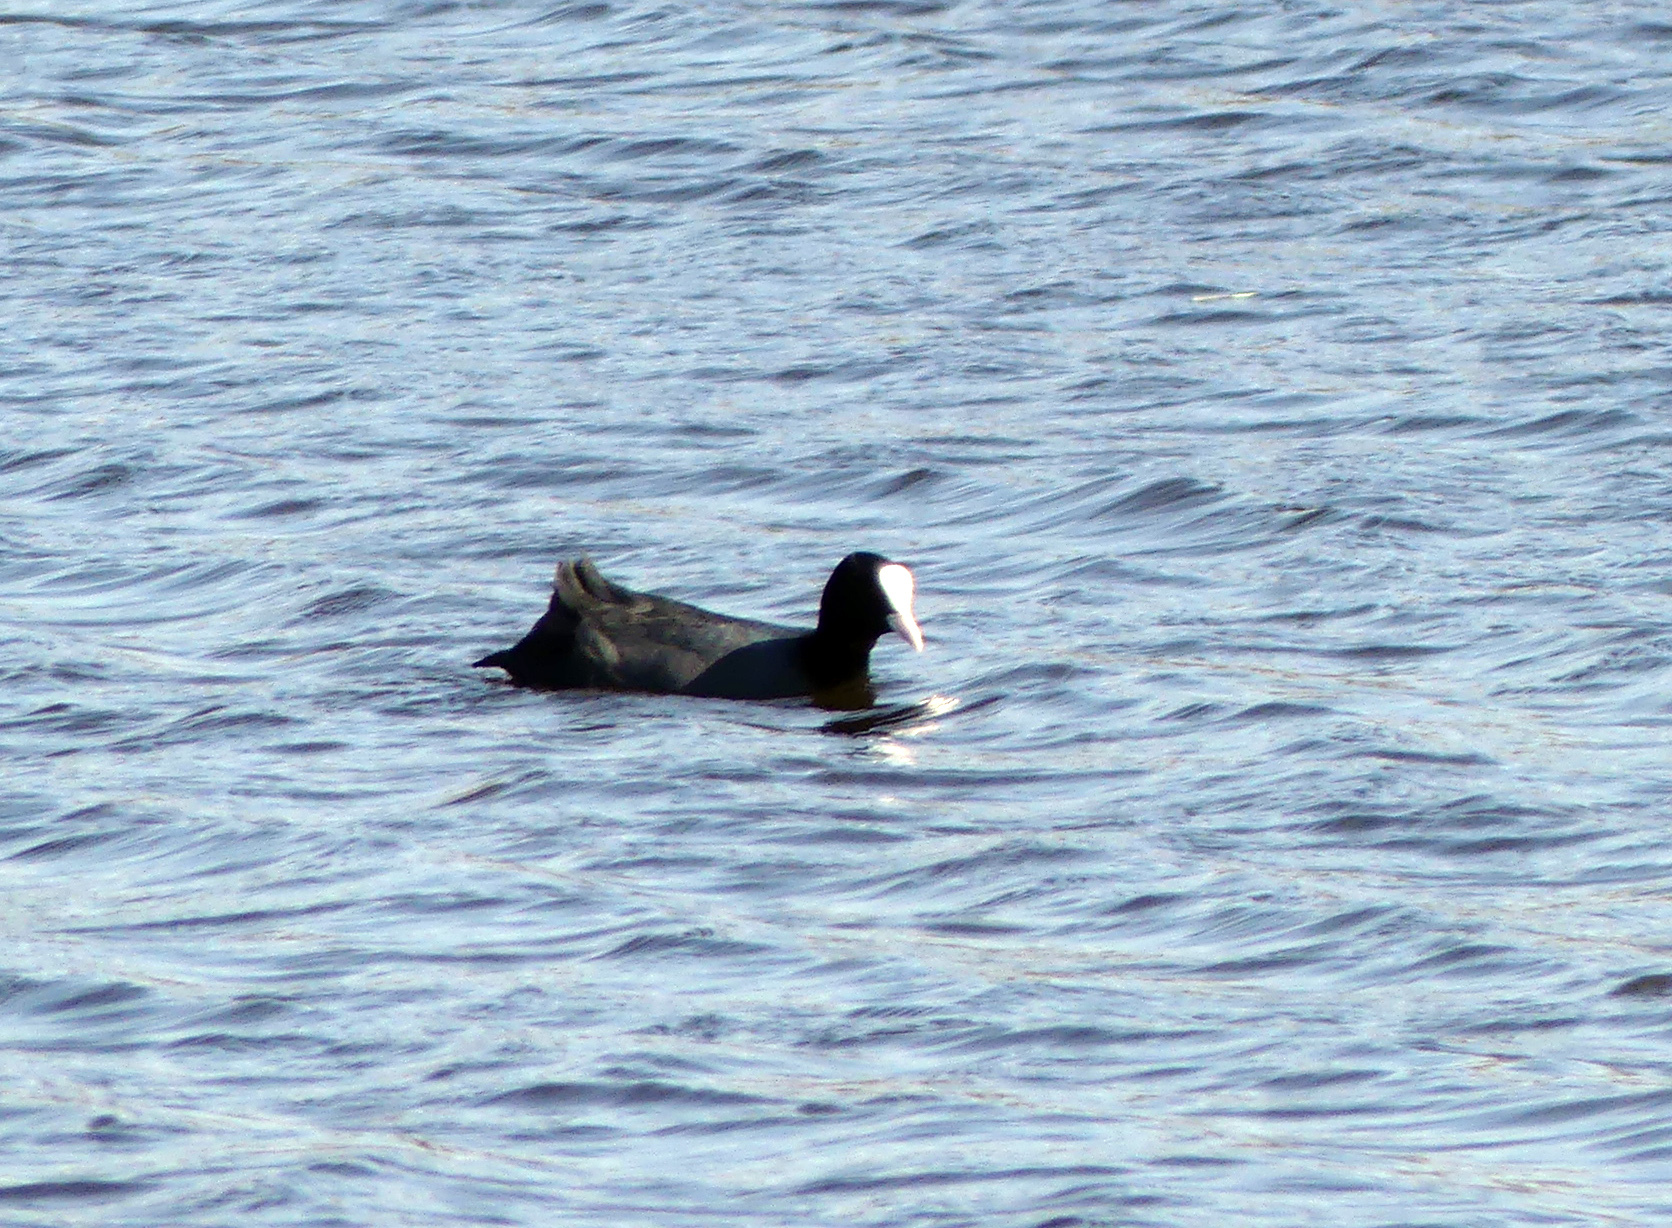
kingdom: Animalia
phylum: Chordata
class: Aves
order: Gruiformes
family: Rallidae
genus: Fulica
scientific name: Fulica atra
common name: Eurasian coot
